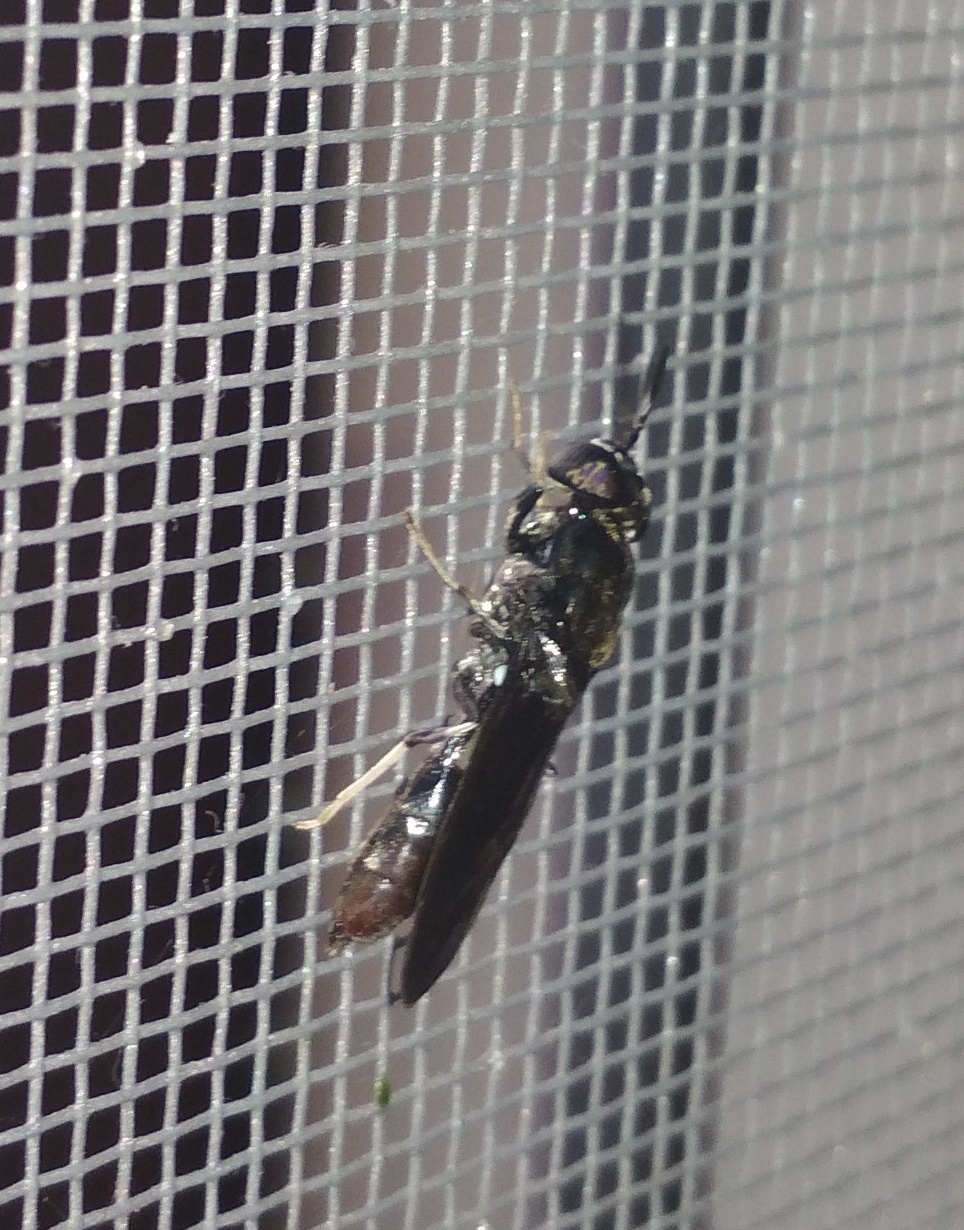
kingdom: Animalia
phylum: Arthropoda
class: Insecta
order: Diptera
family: Stratiomyidae
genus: Hermetia
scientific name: Hermetia illucens
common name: Black soldier fly
